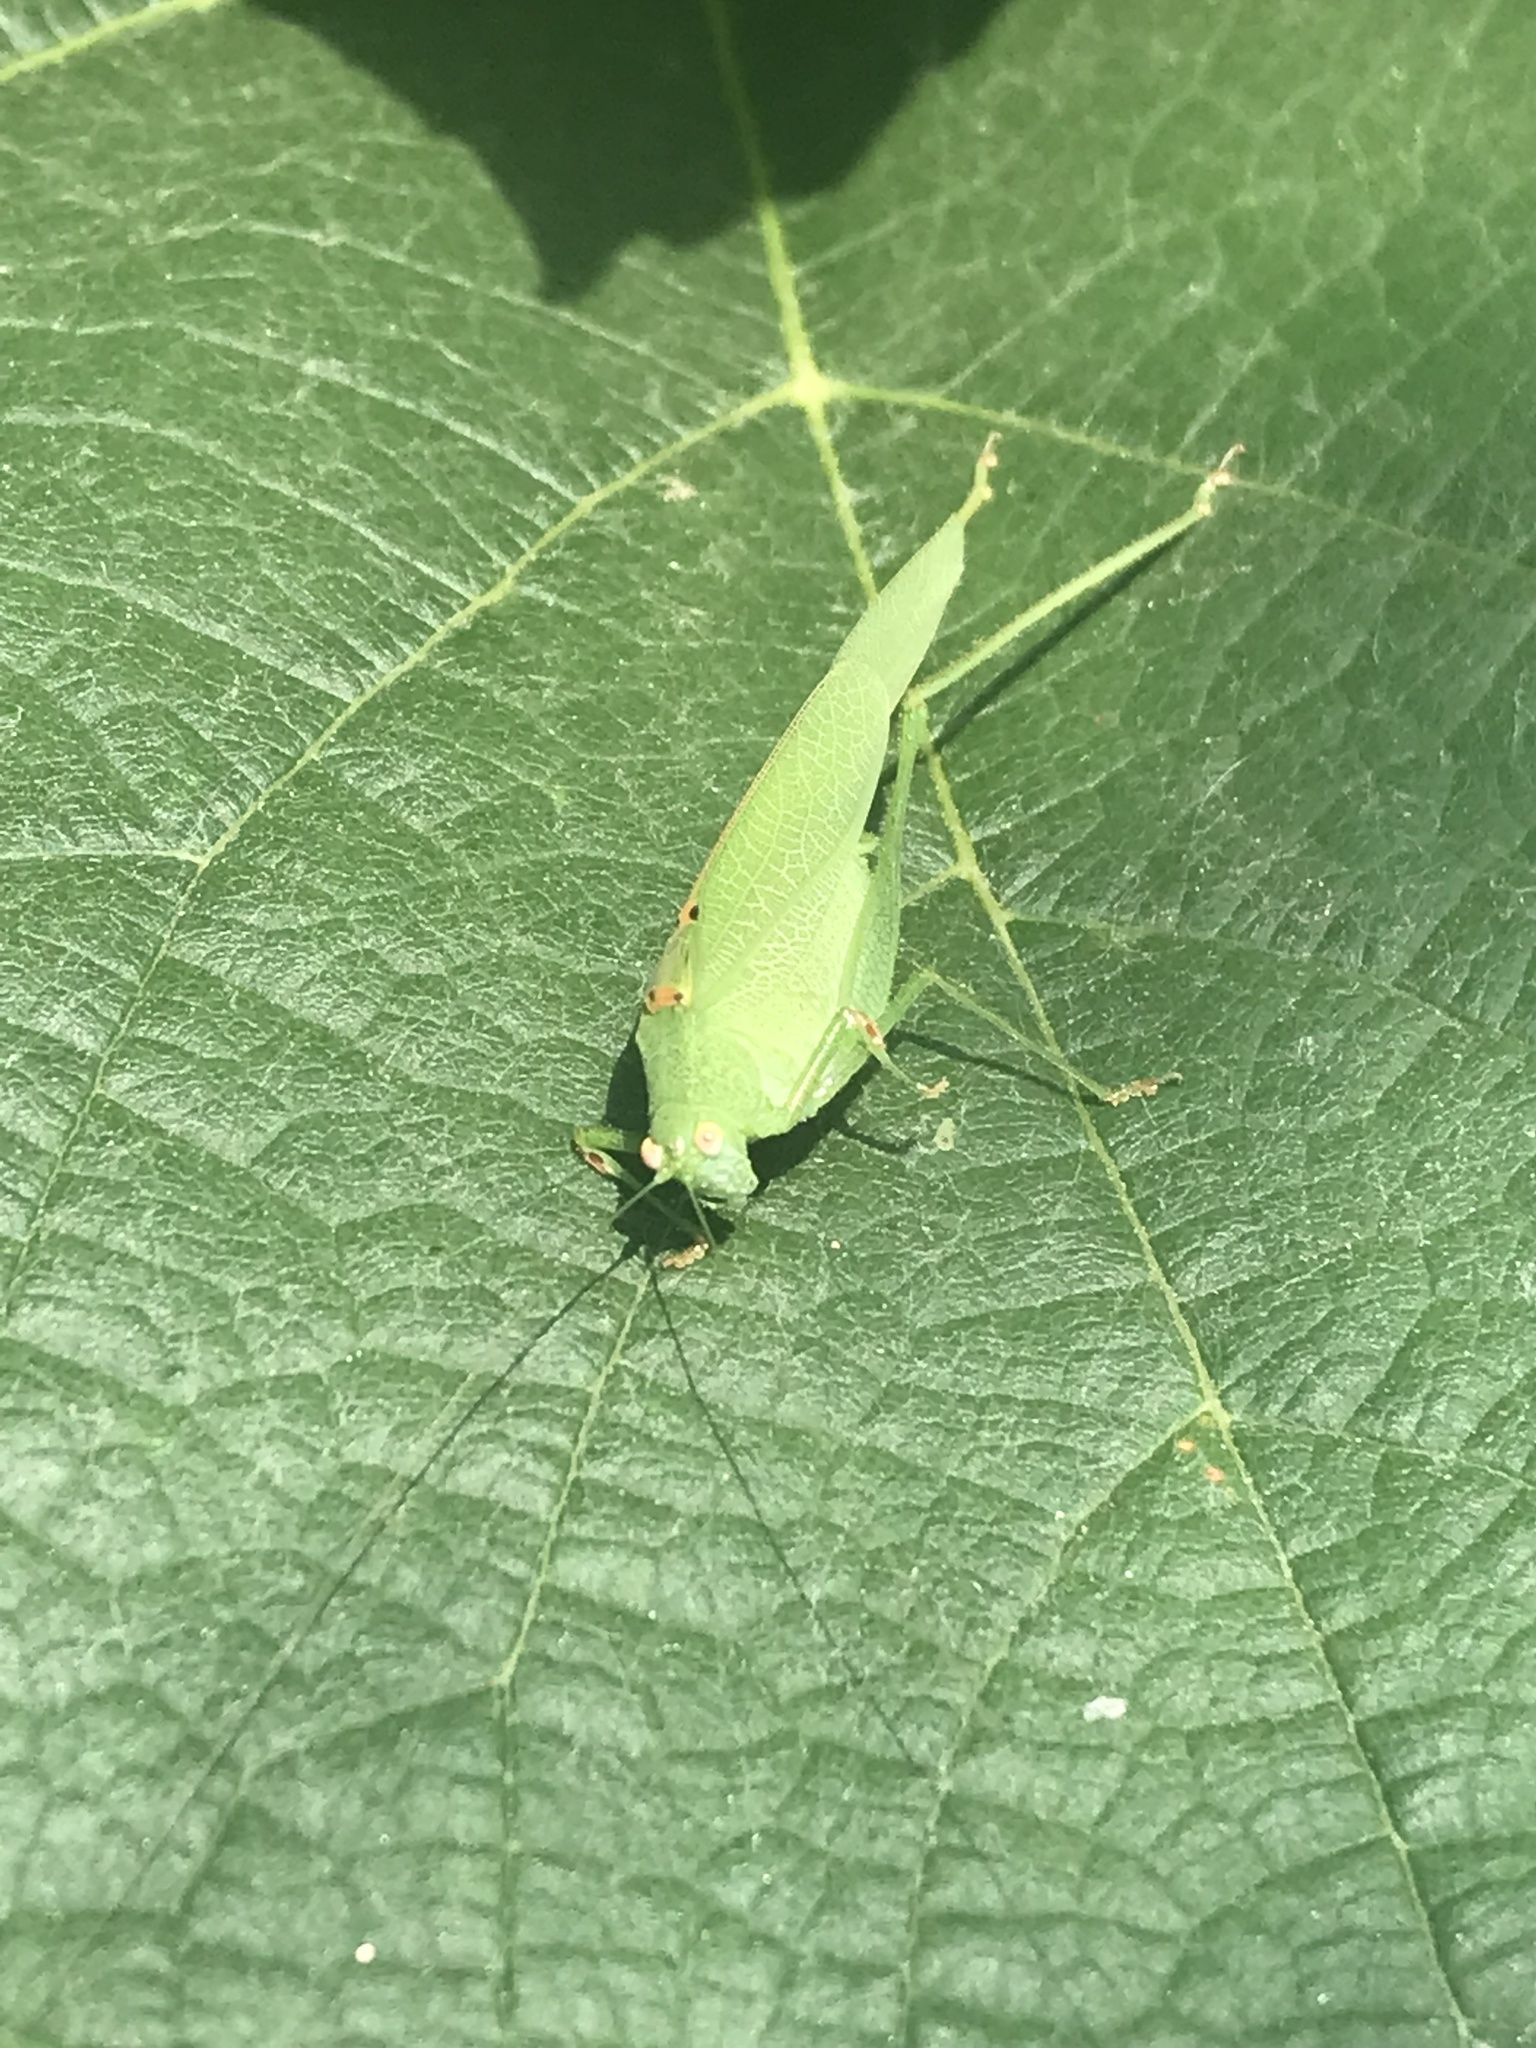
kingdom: Animalia
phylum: Arthropoda
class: Insecta
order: Orthoptera
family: Tettigoniidae
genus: Phaneroptera
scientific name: Phaneroptera nana
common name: Southern sickle bush-cricket
